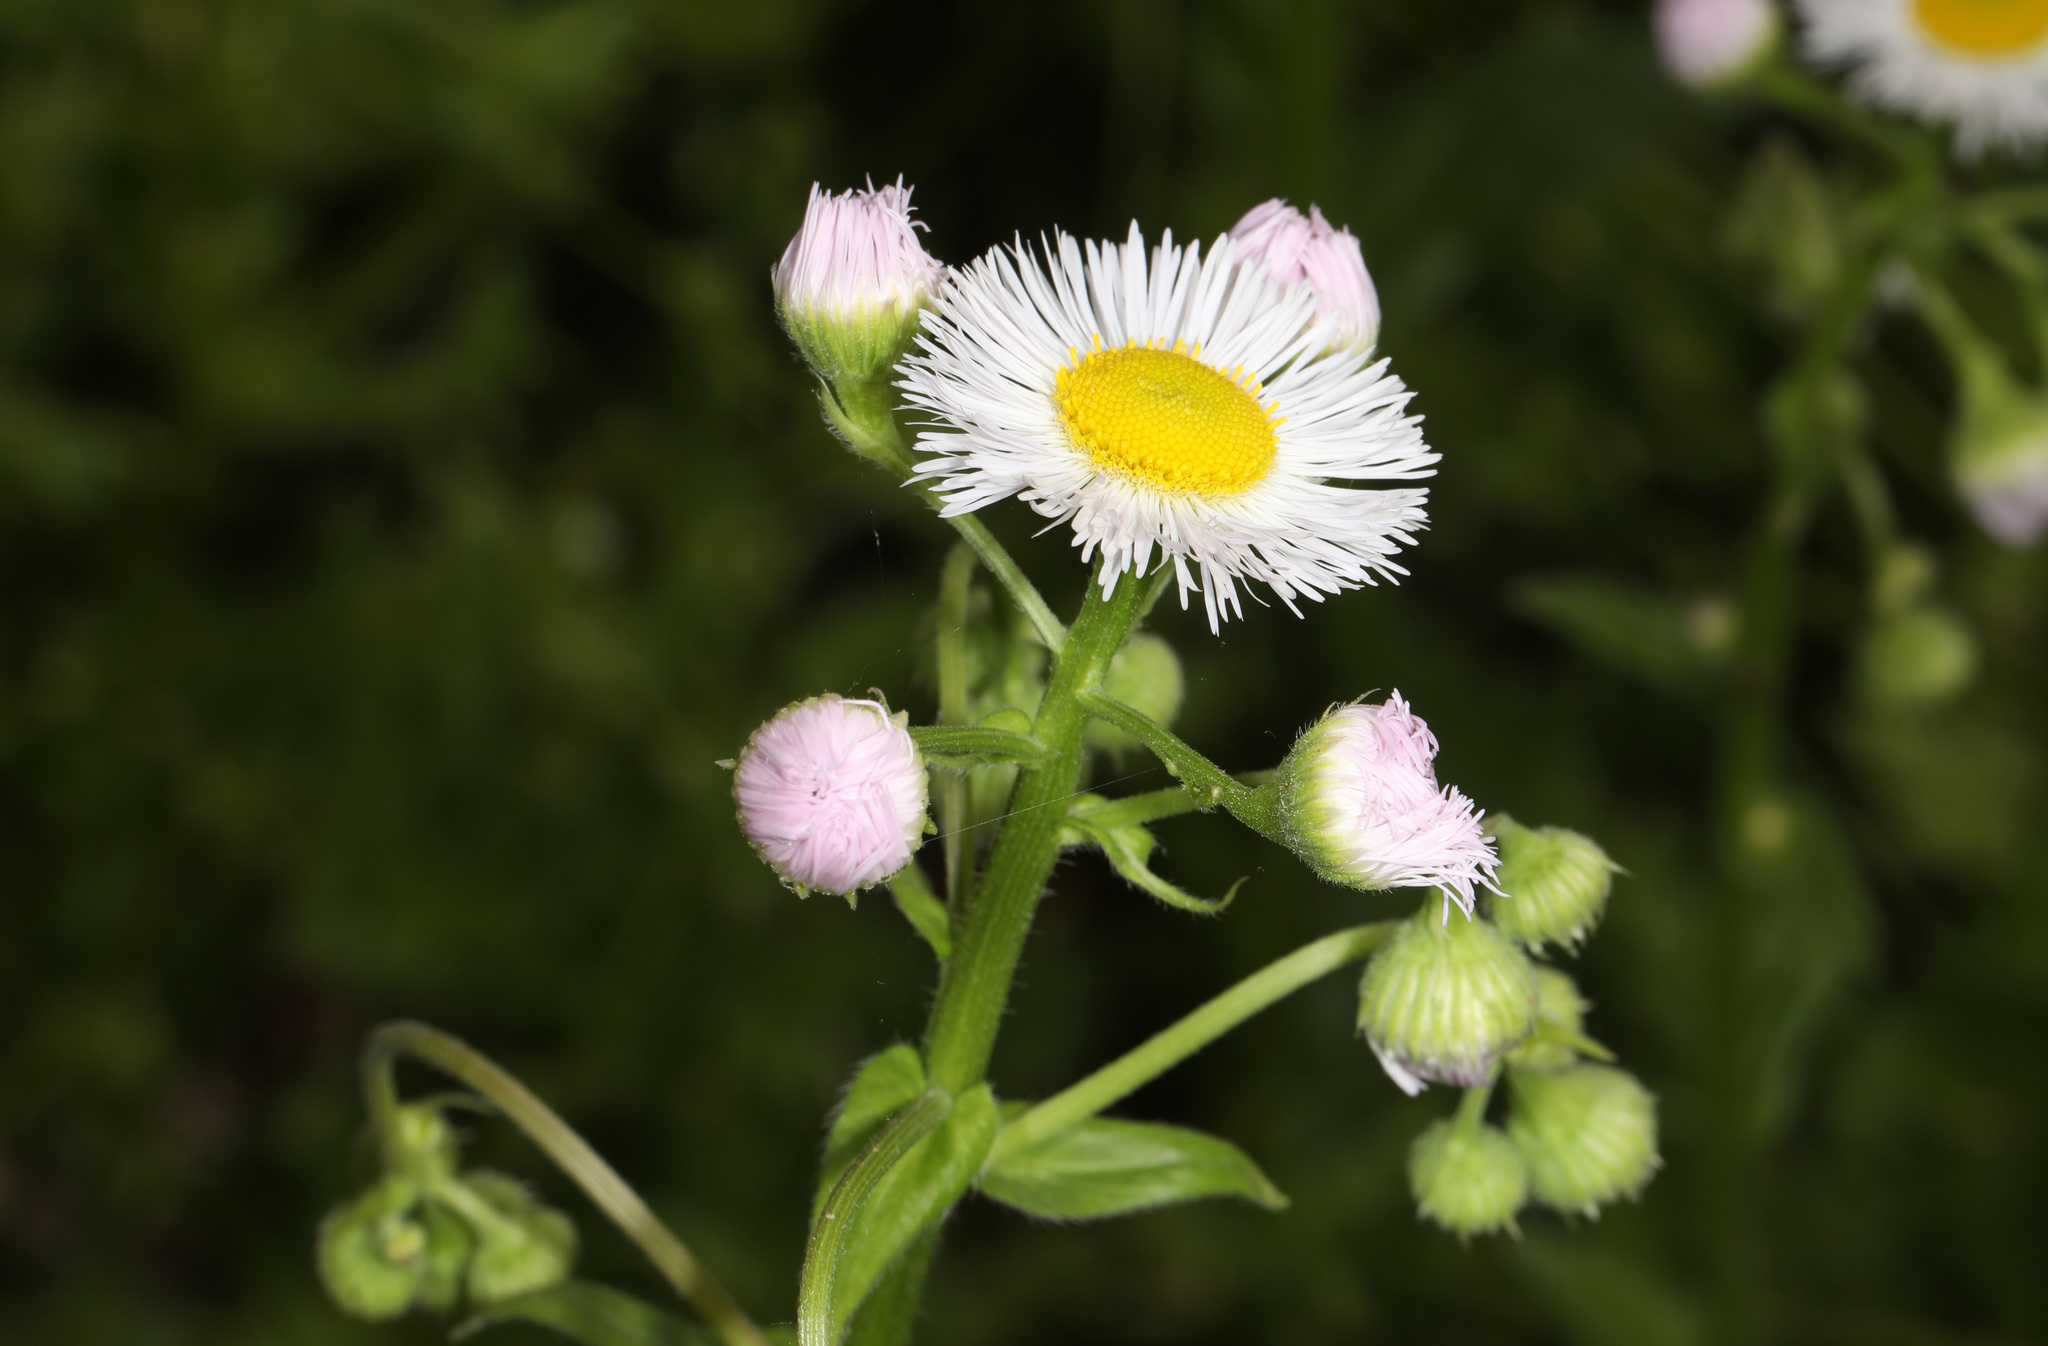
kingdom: Plantae
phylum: Tracheophyta
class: Magnoliopsida
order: Asterales
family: Asteraceae
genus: Erigeron
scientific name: Erigeron philadelphicus
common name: Robin's-plantain
